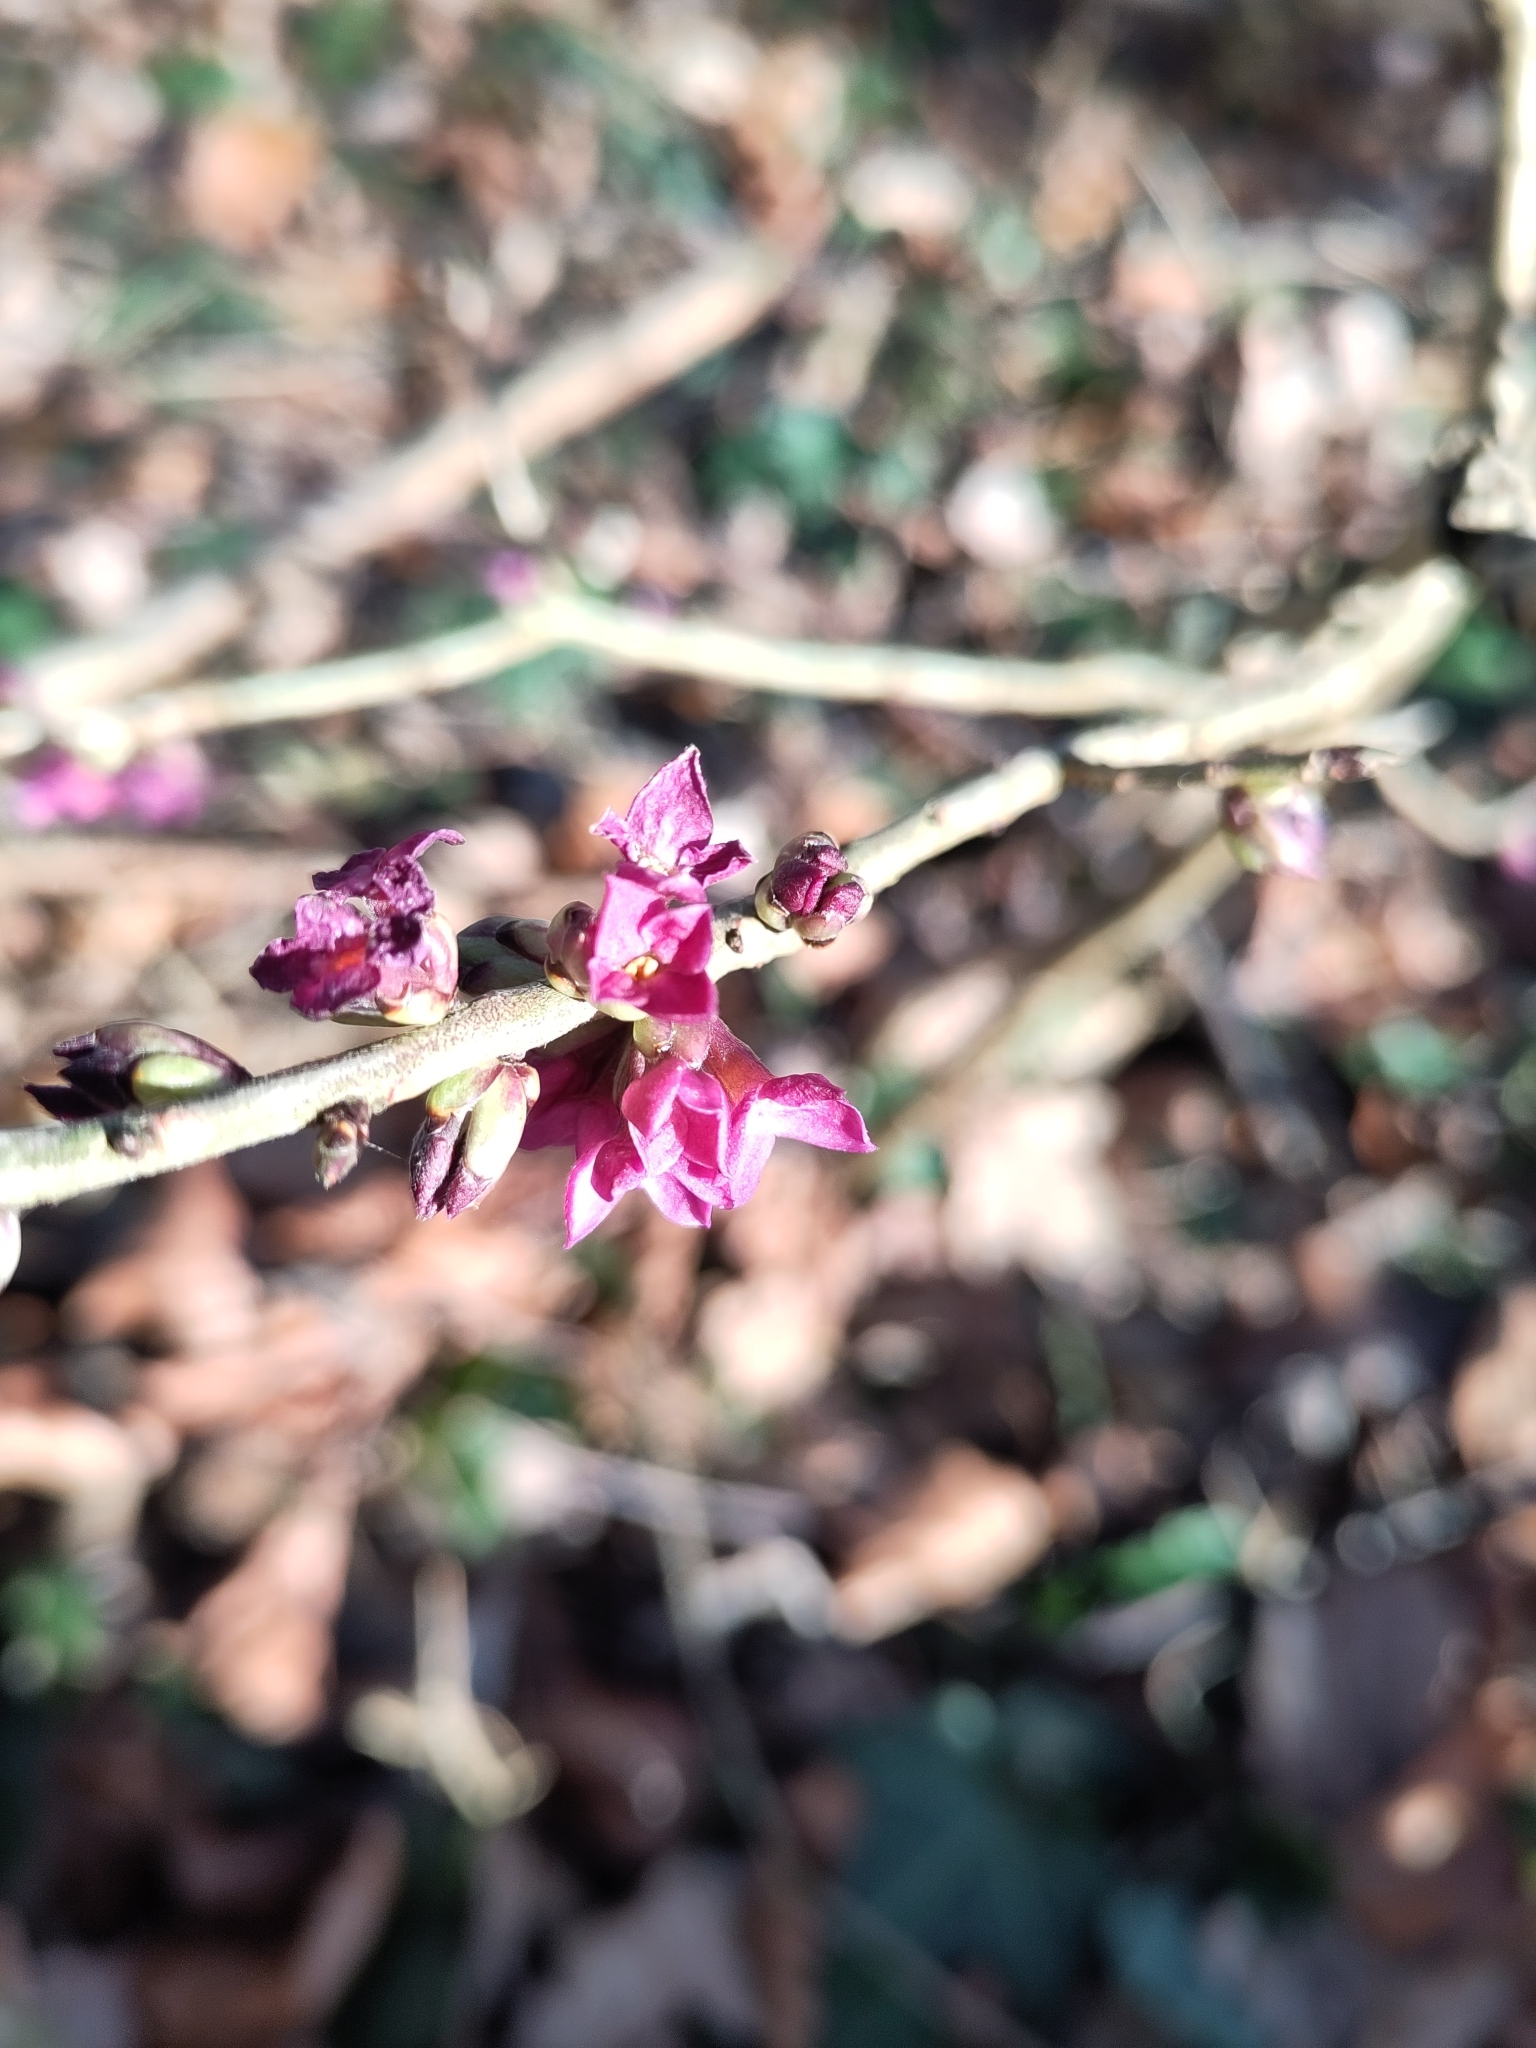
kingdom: Plantae
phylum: Tracheophyta
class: Magnoliopsida
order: Malvales
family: Thymelaeaceae
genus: Daphne
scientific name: Daphne mezereum
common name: Mezereon
